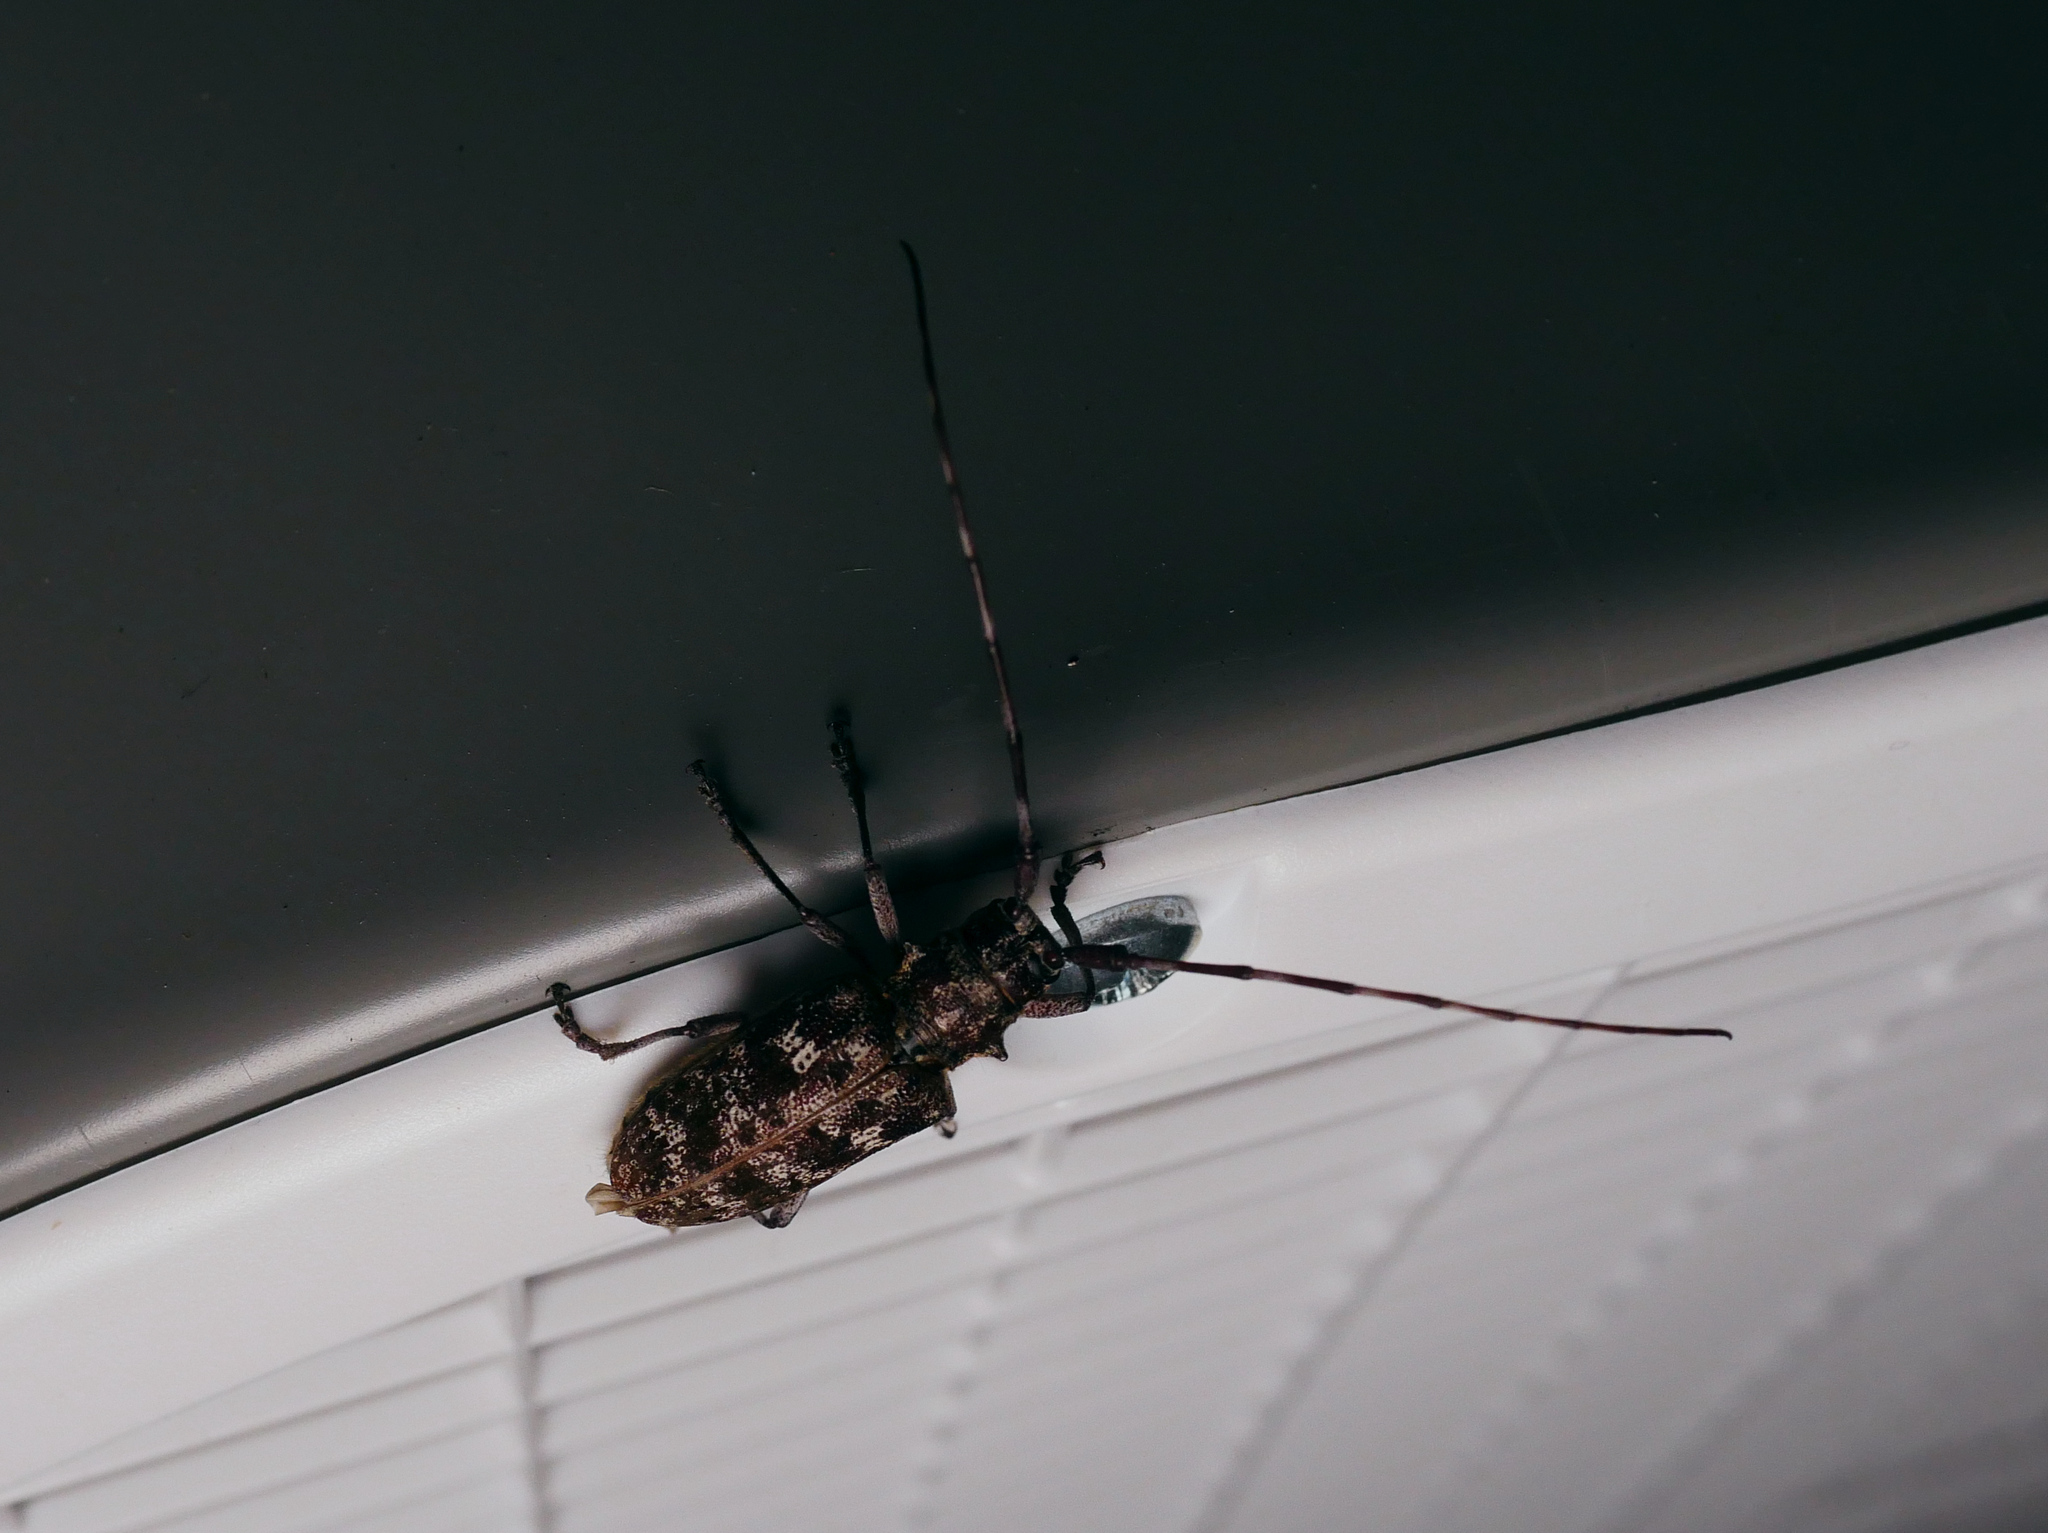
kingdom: Animalia
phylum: Arthropoda
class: Insecta
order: Coleoptera
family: Cerambycidae
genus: Monochamus
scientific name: Monochamus clamator
